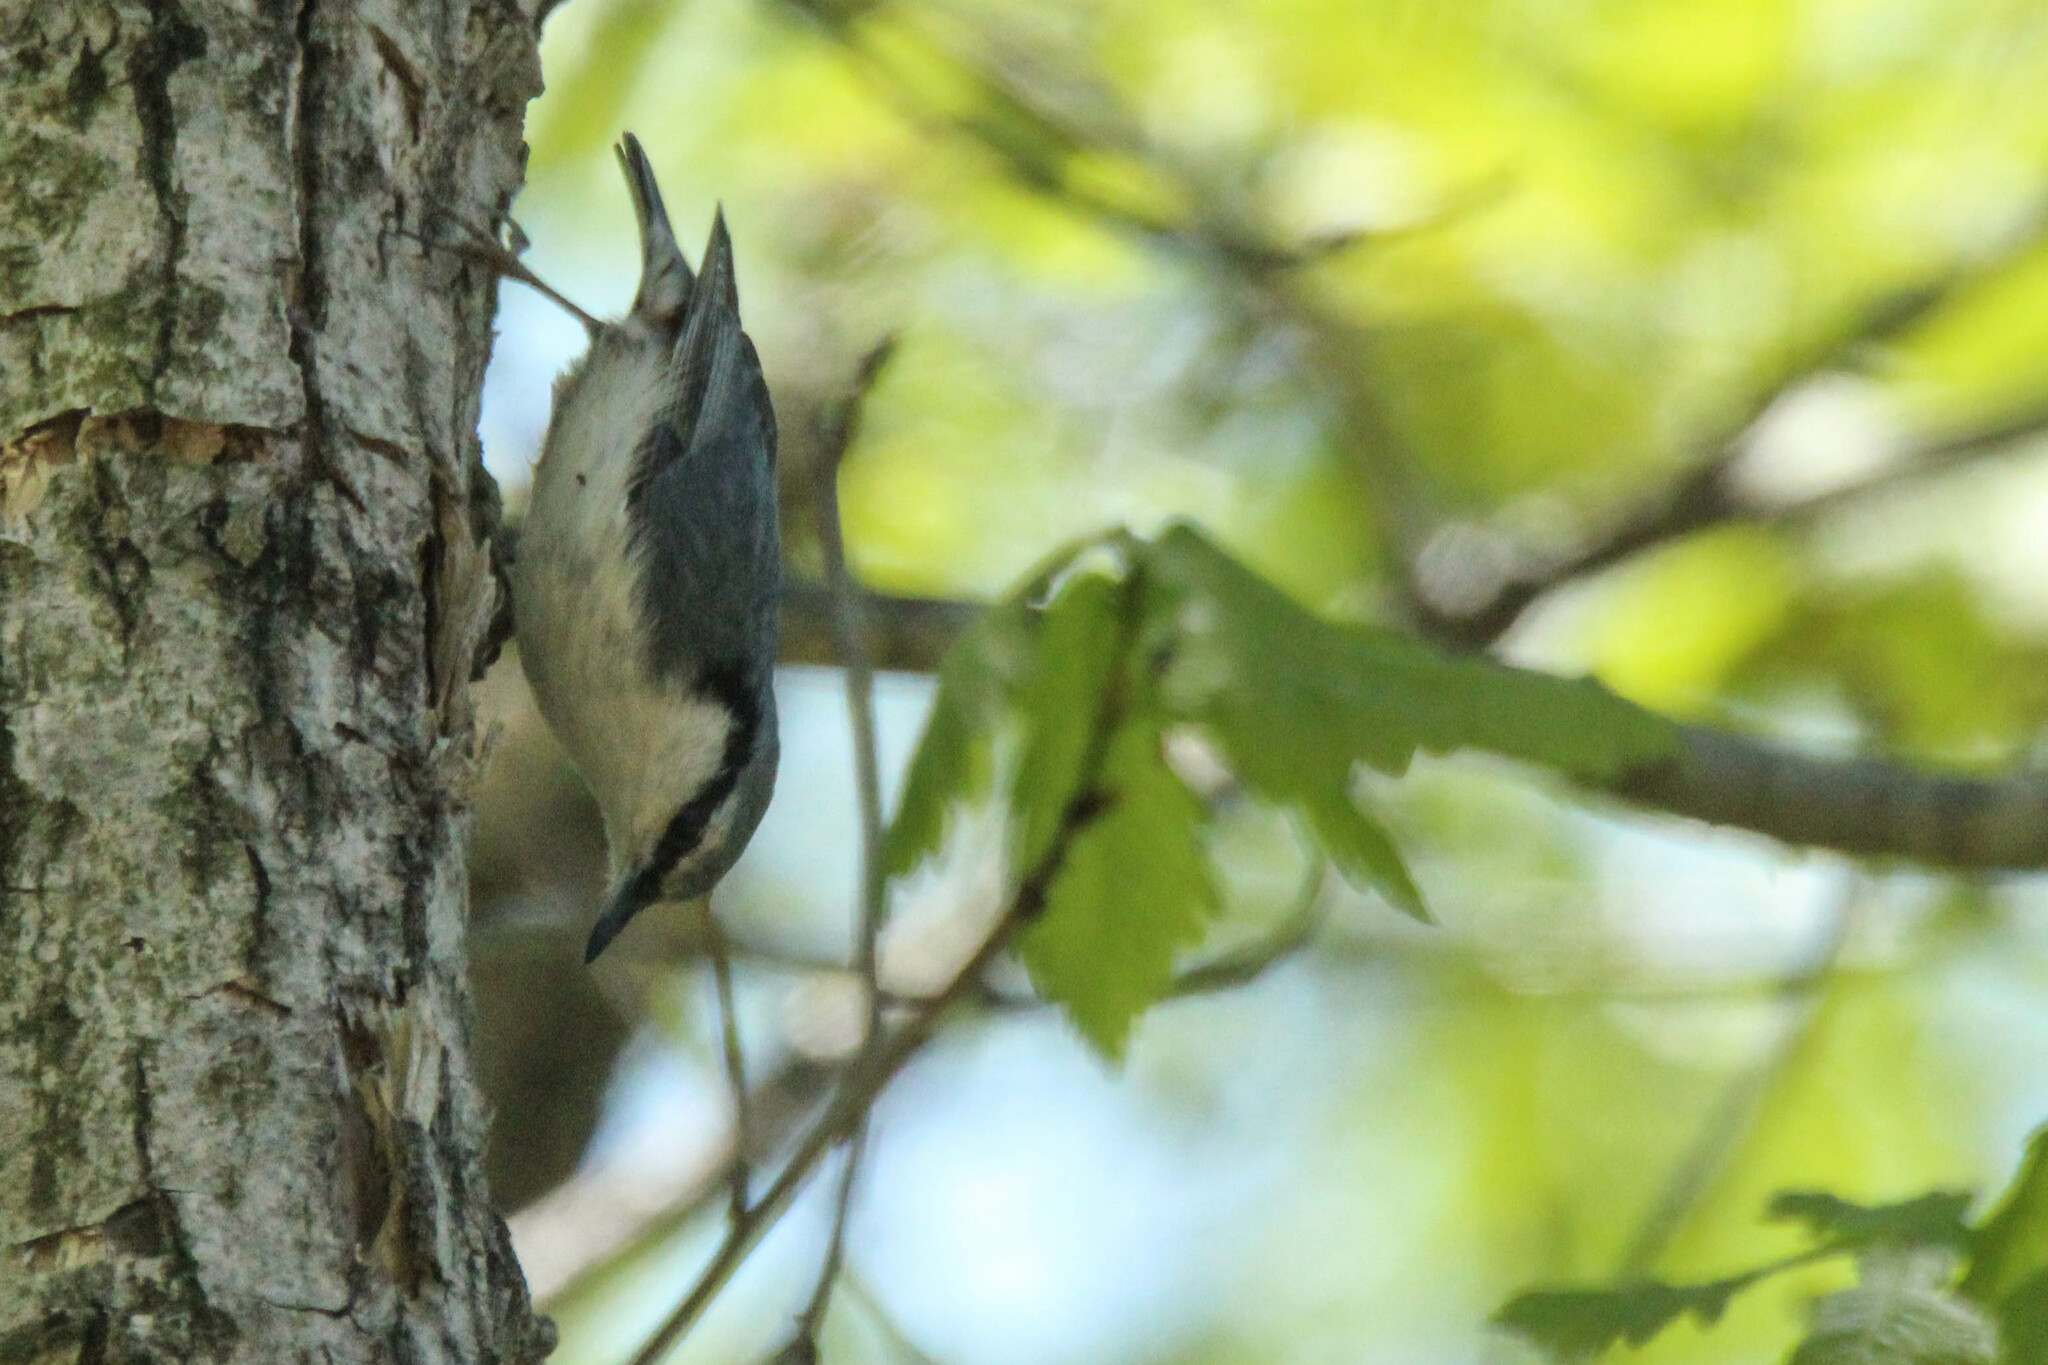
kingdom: Animalia
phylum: Chordata
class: Aves
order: Passeriformes
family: Sittidae
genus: Sitta
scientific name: Sitta europaea
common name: Eurasian nuthatch
